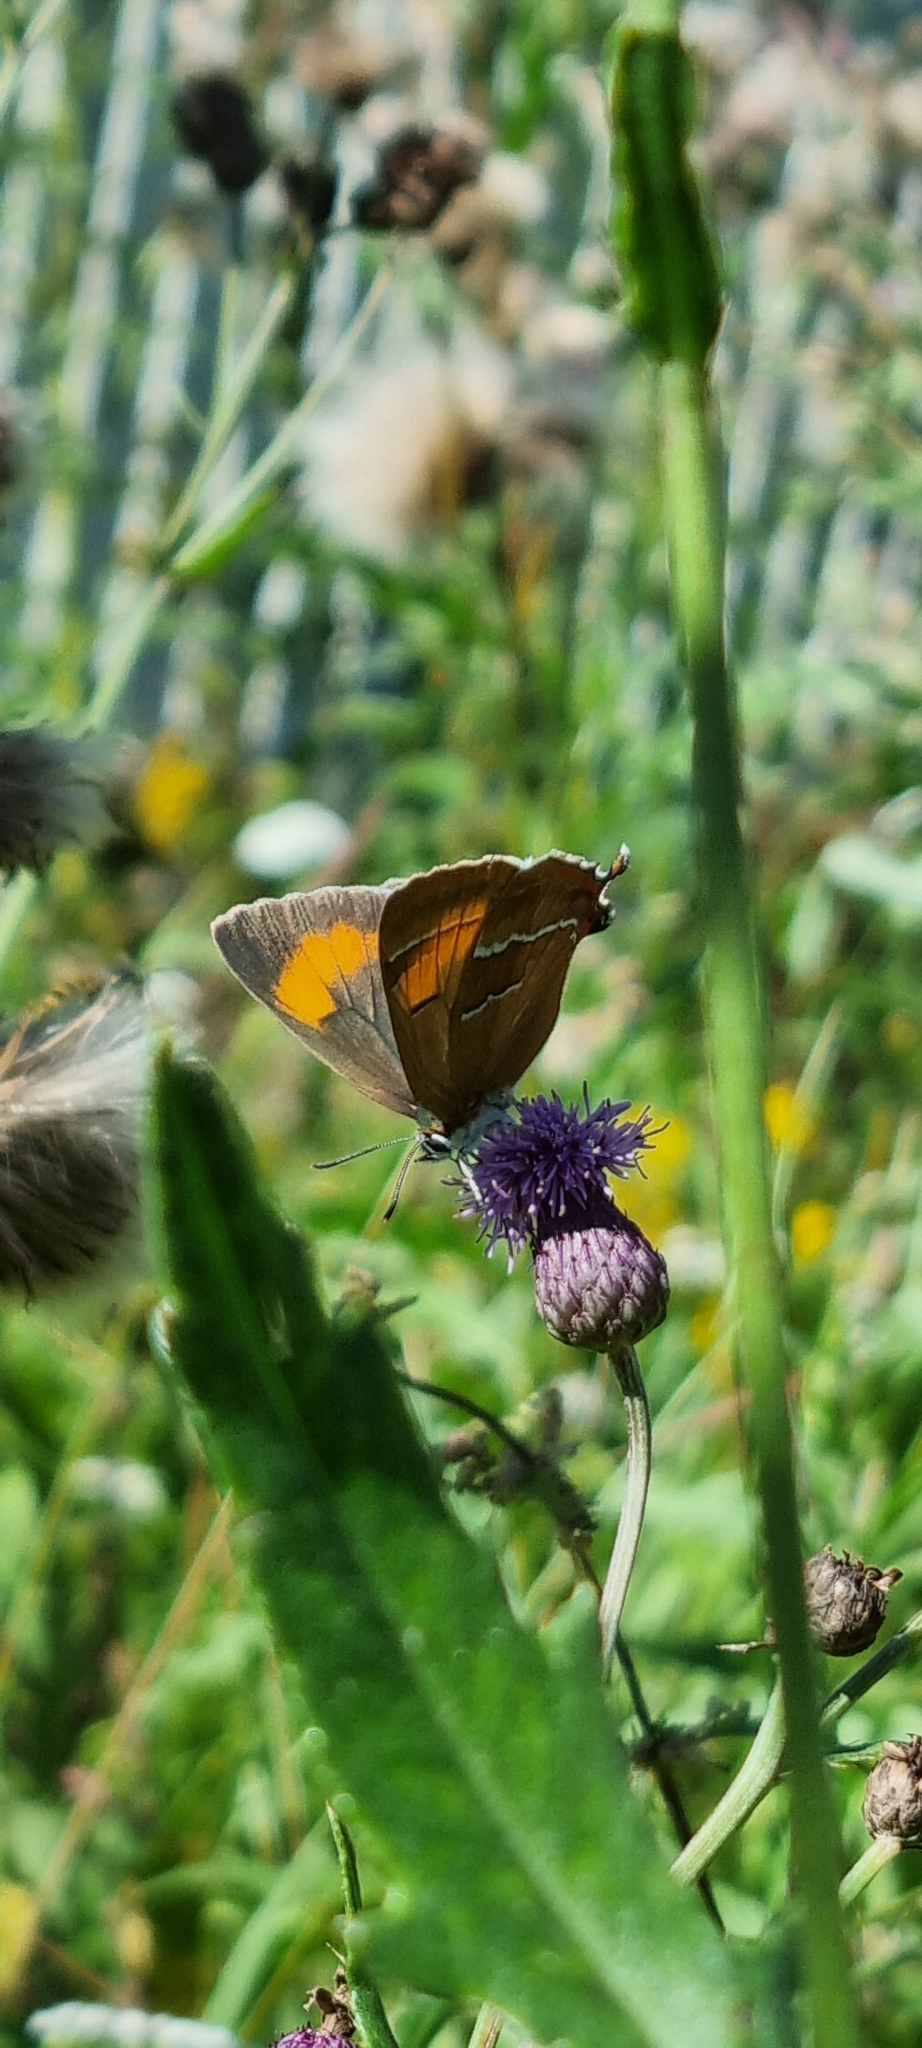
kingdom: Animalia
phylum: Arthropoda
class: Insecta
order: Lepidoptera
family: Lycaenidae
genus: Thecla
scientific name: Thecla betulae
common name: Brown hairstreak
